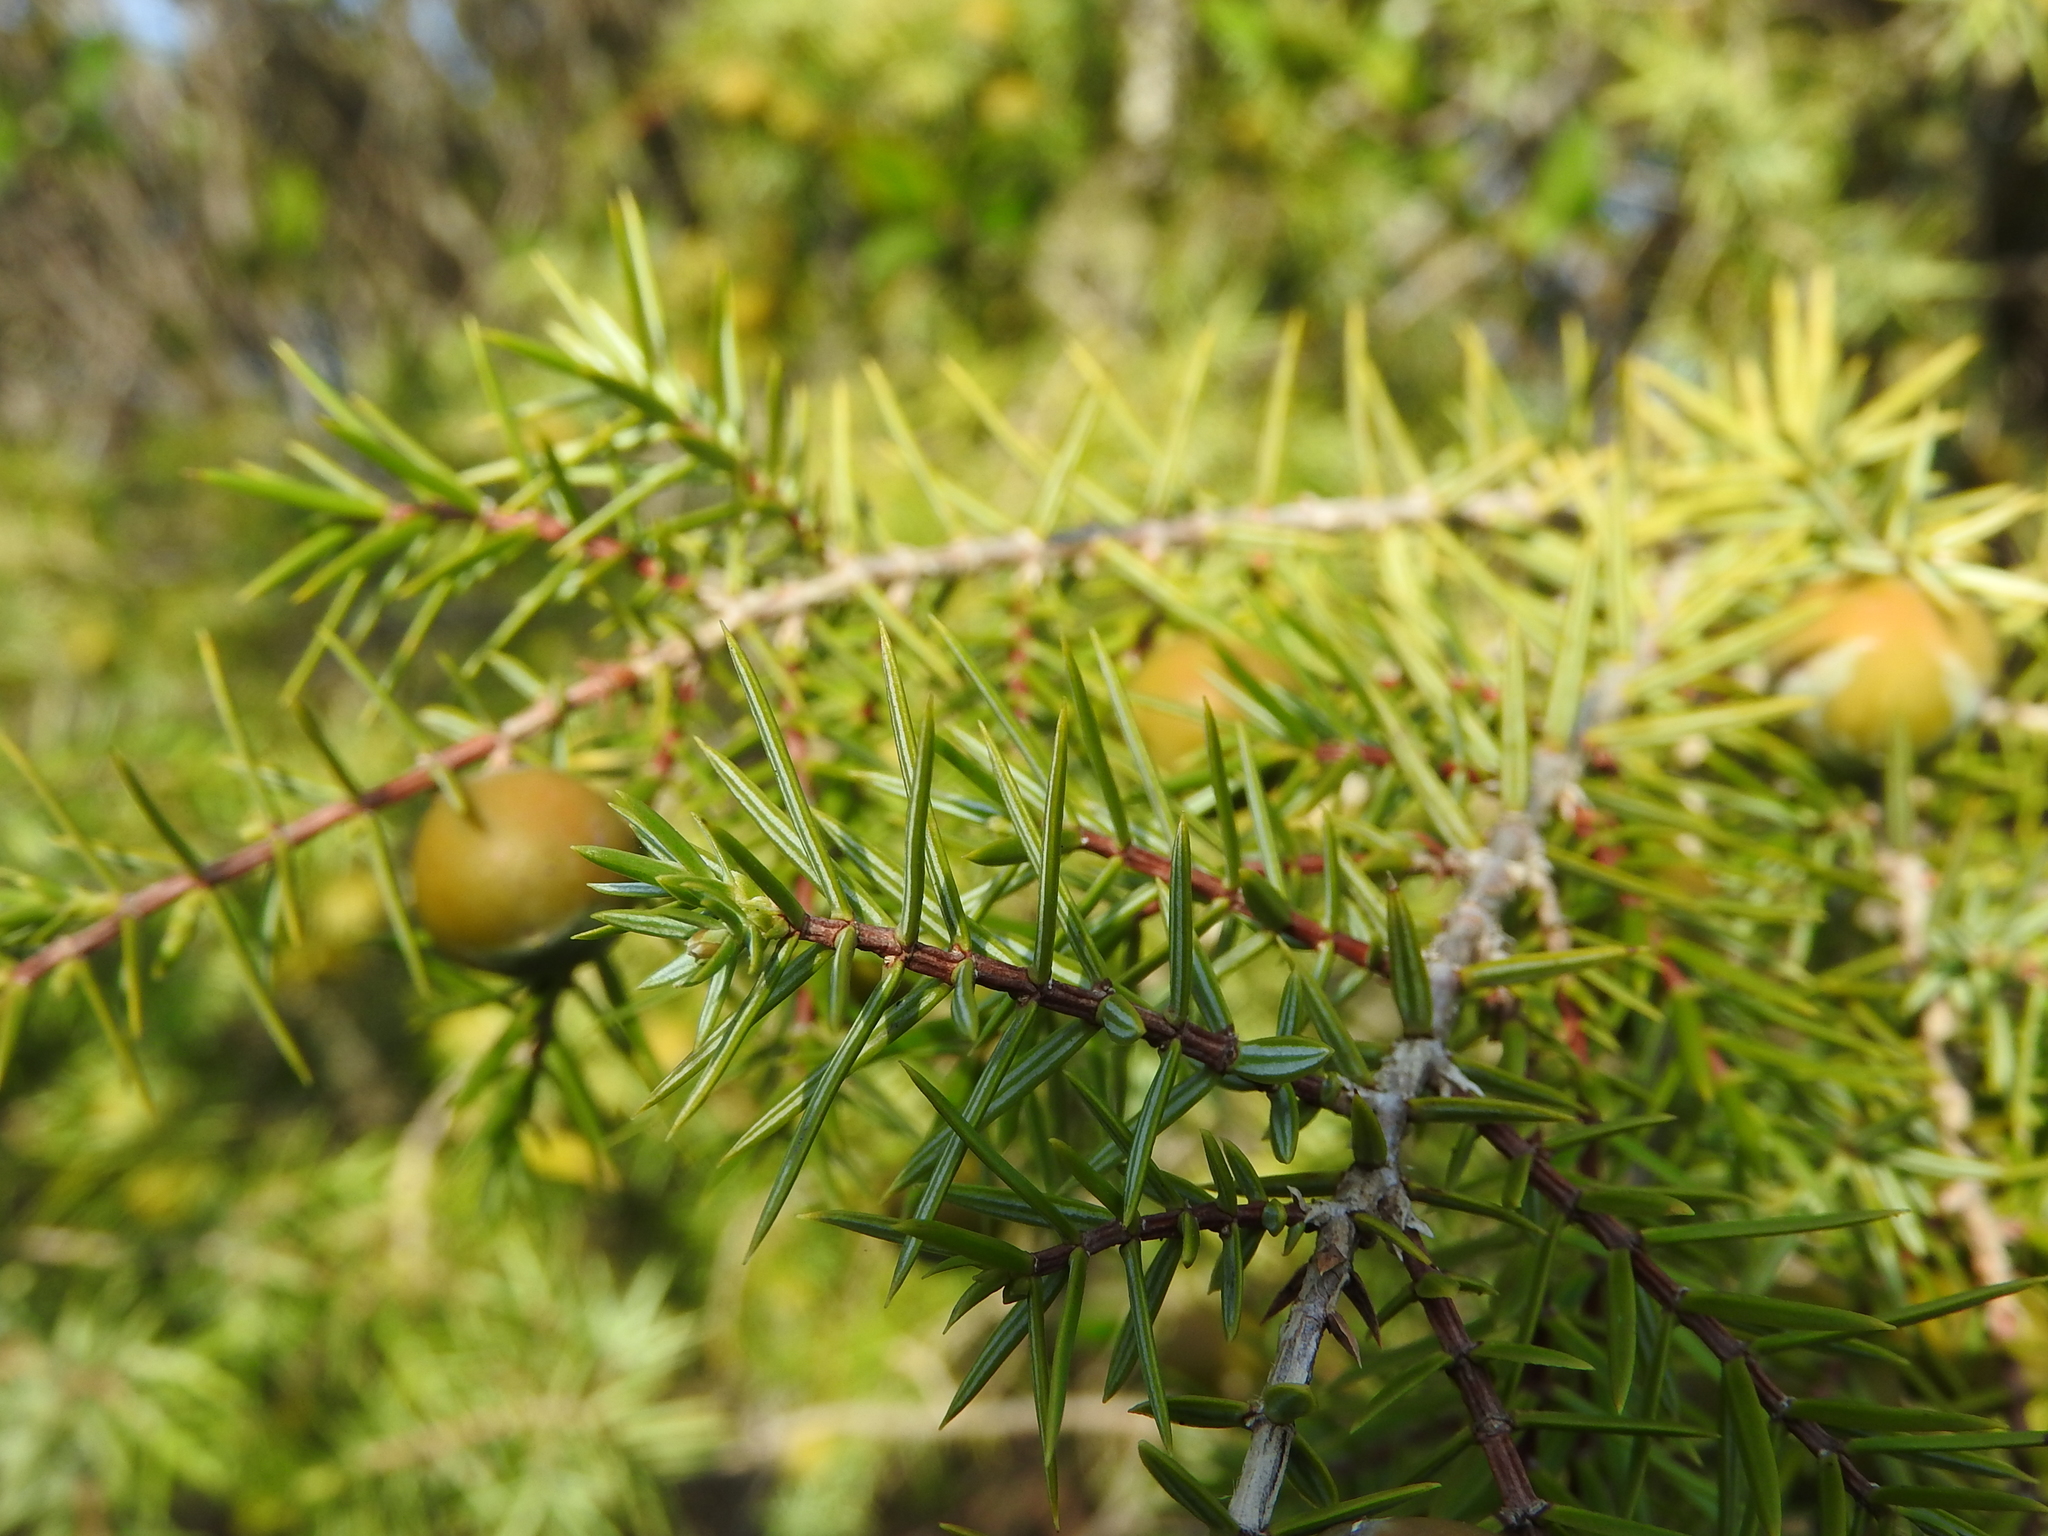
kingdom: Plantae
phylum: Tracheophyta
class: Pinopsida
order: Pinales
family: Cupressaceae
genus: Juniperus
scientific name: Juniperus oxycedrus
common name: Prickly juniper
